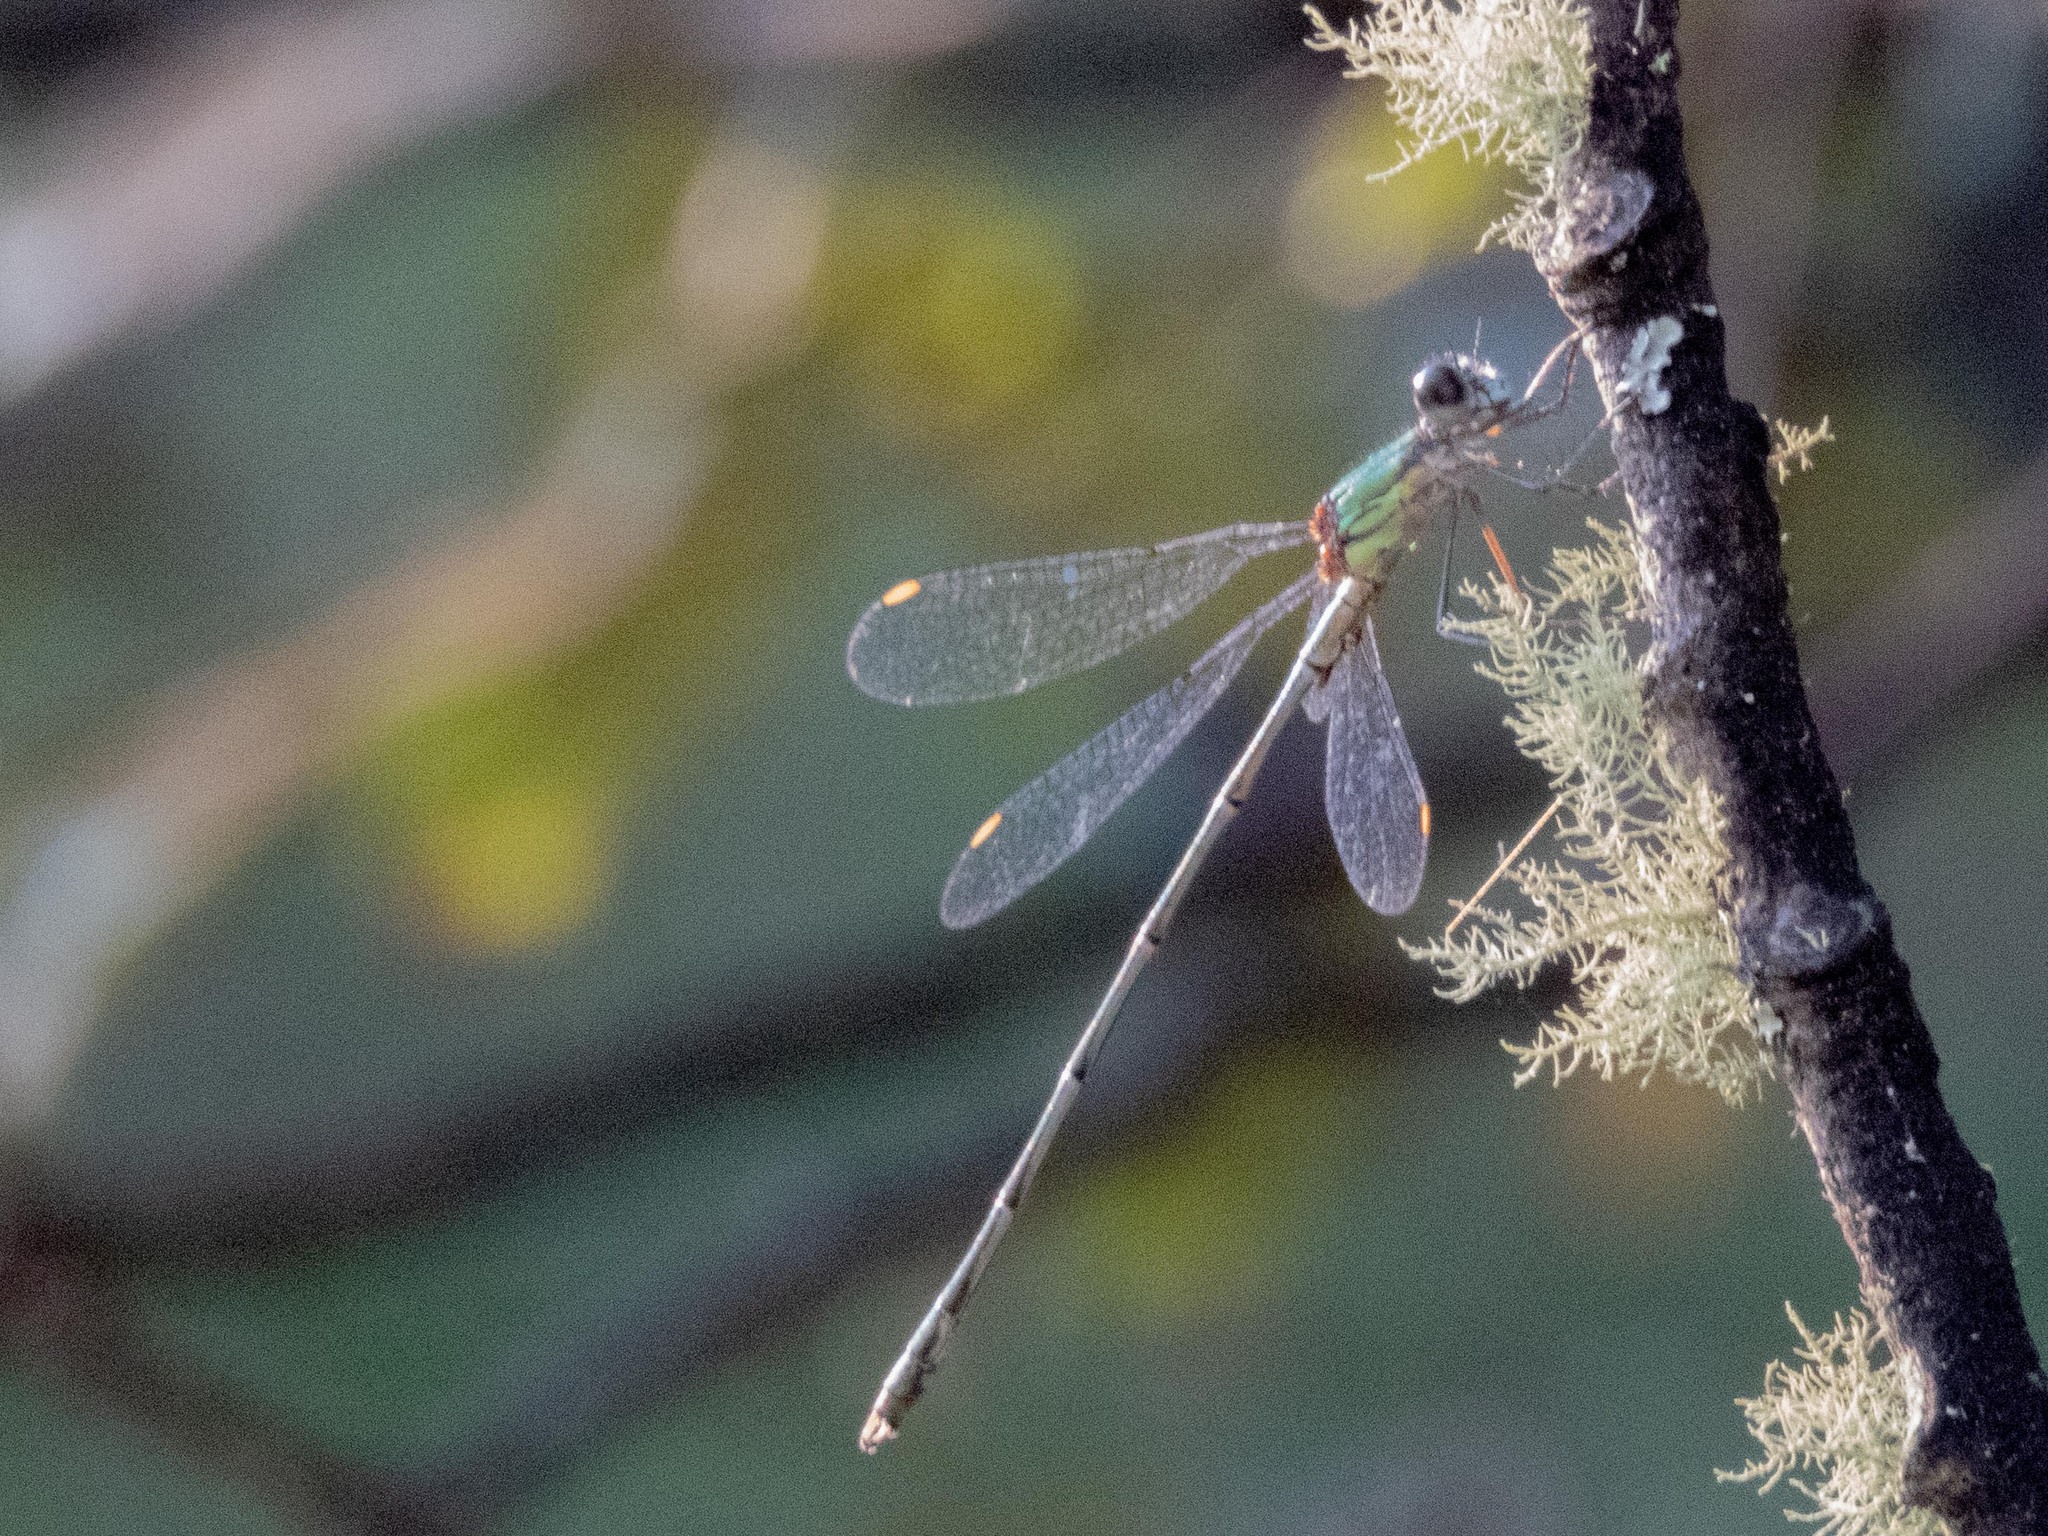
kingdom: Animalia
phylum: Arthropoda
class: Insecta
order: Odonata
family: Lestidae
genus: Chalcolestes
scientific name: Chalcolestes viridis
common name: Green emerald damselfly
